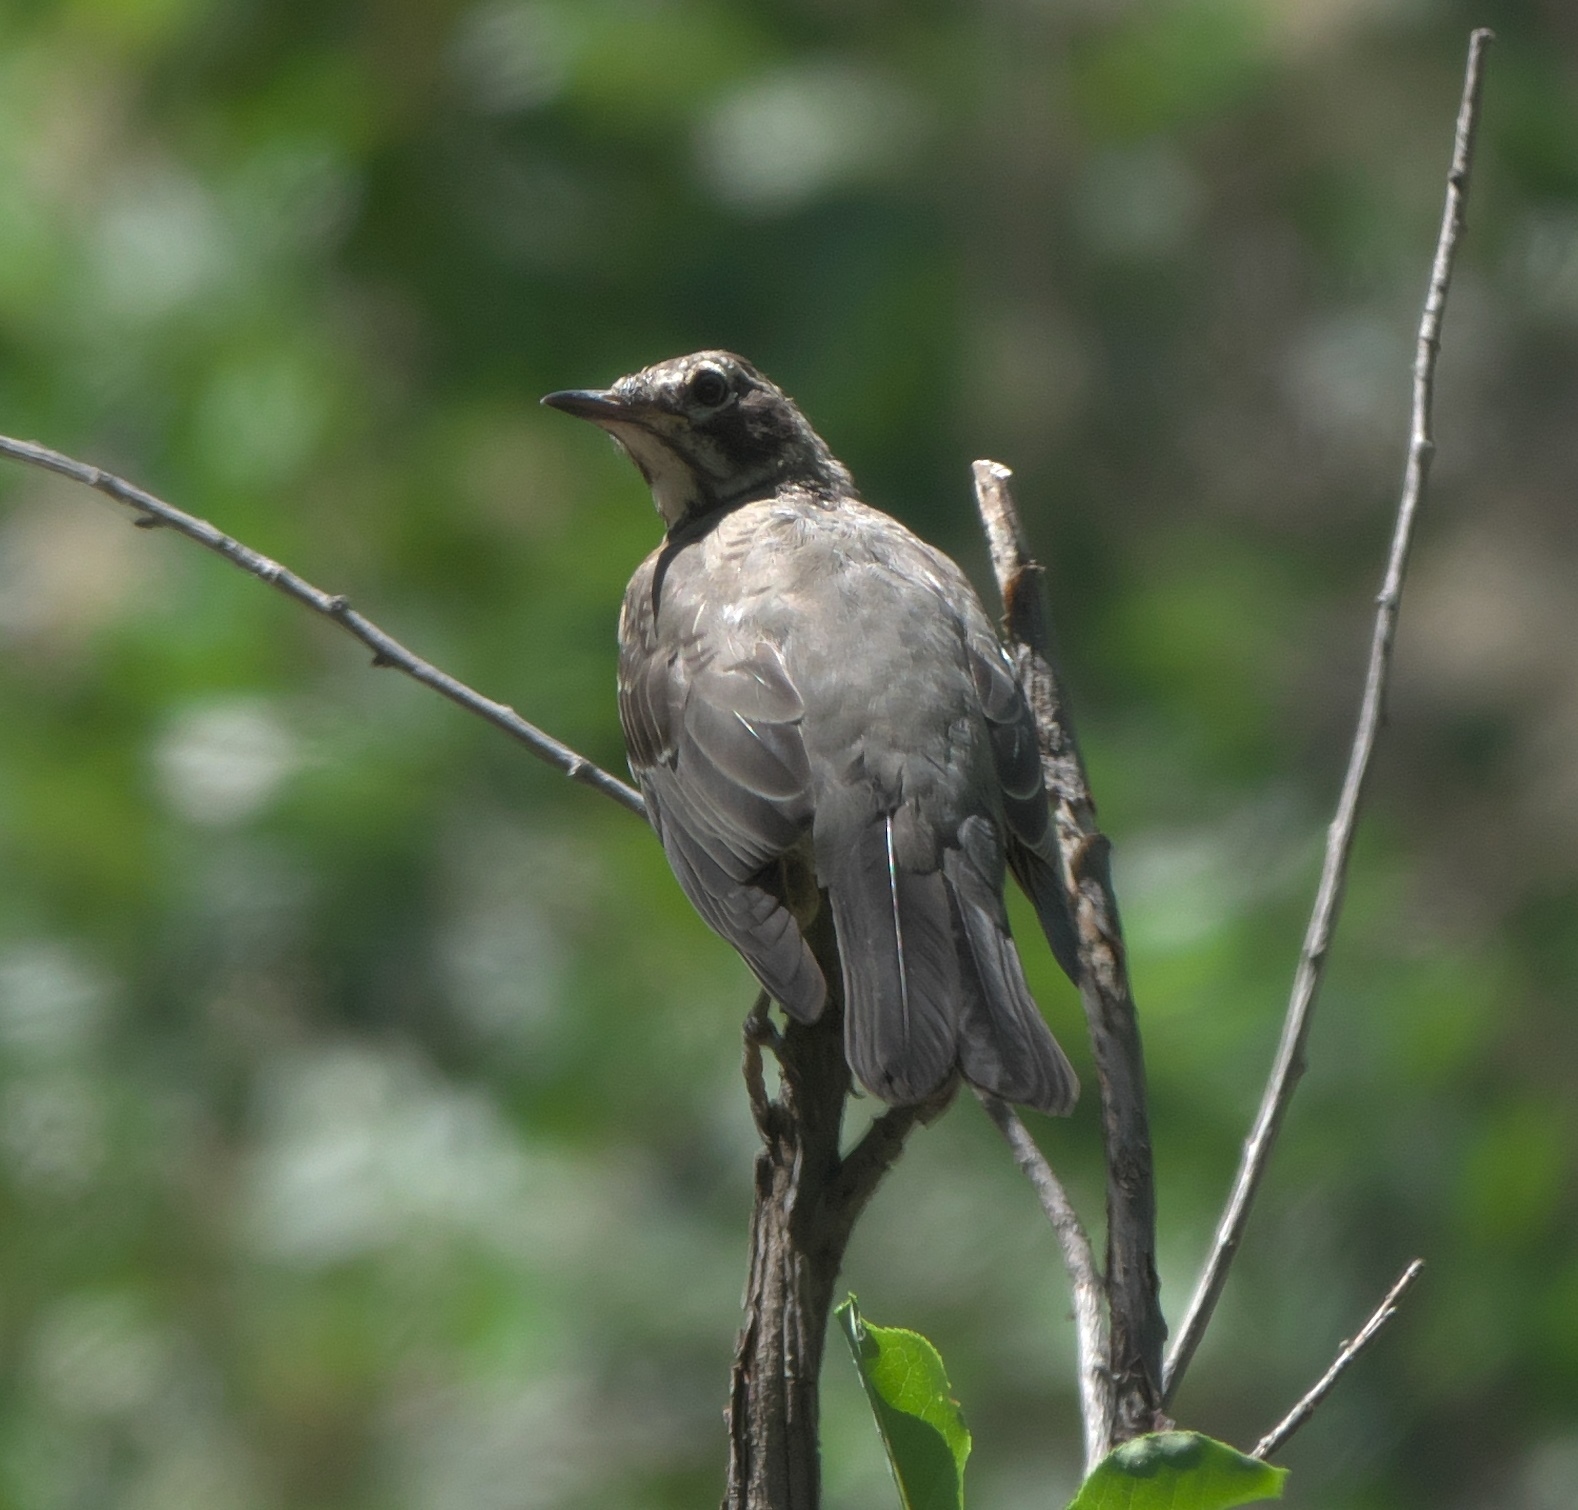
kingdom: Animalia
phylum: Chordata
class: Aves
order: Passeriformes
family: Turdidae
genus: Turdus
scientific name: Turdus migratorius
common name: American robin
